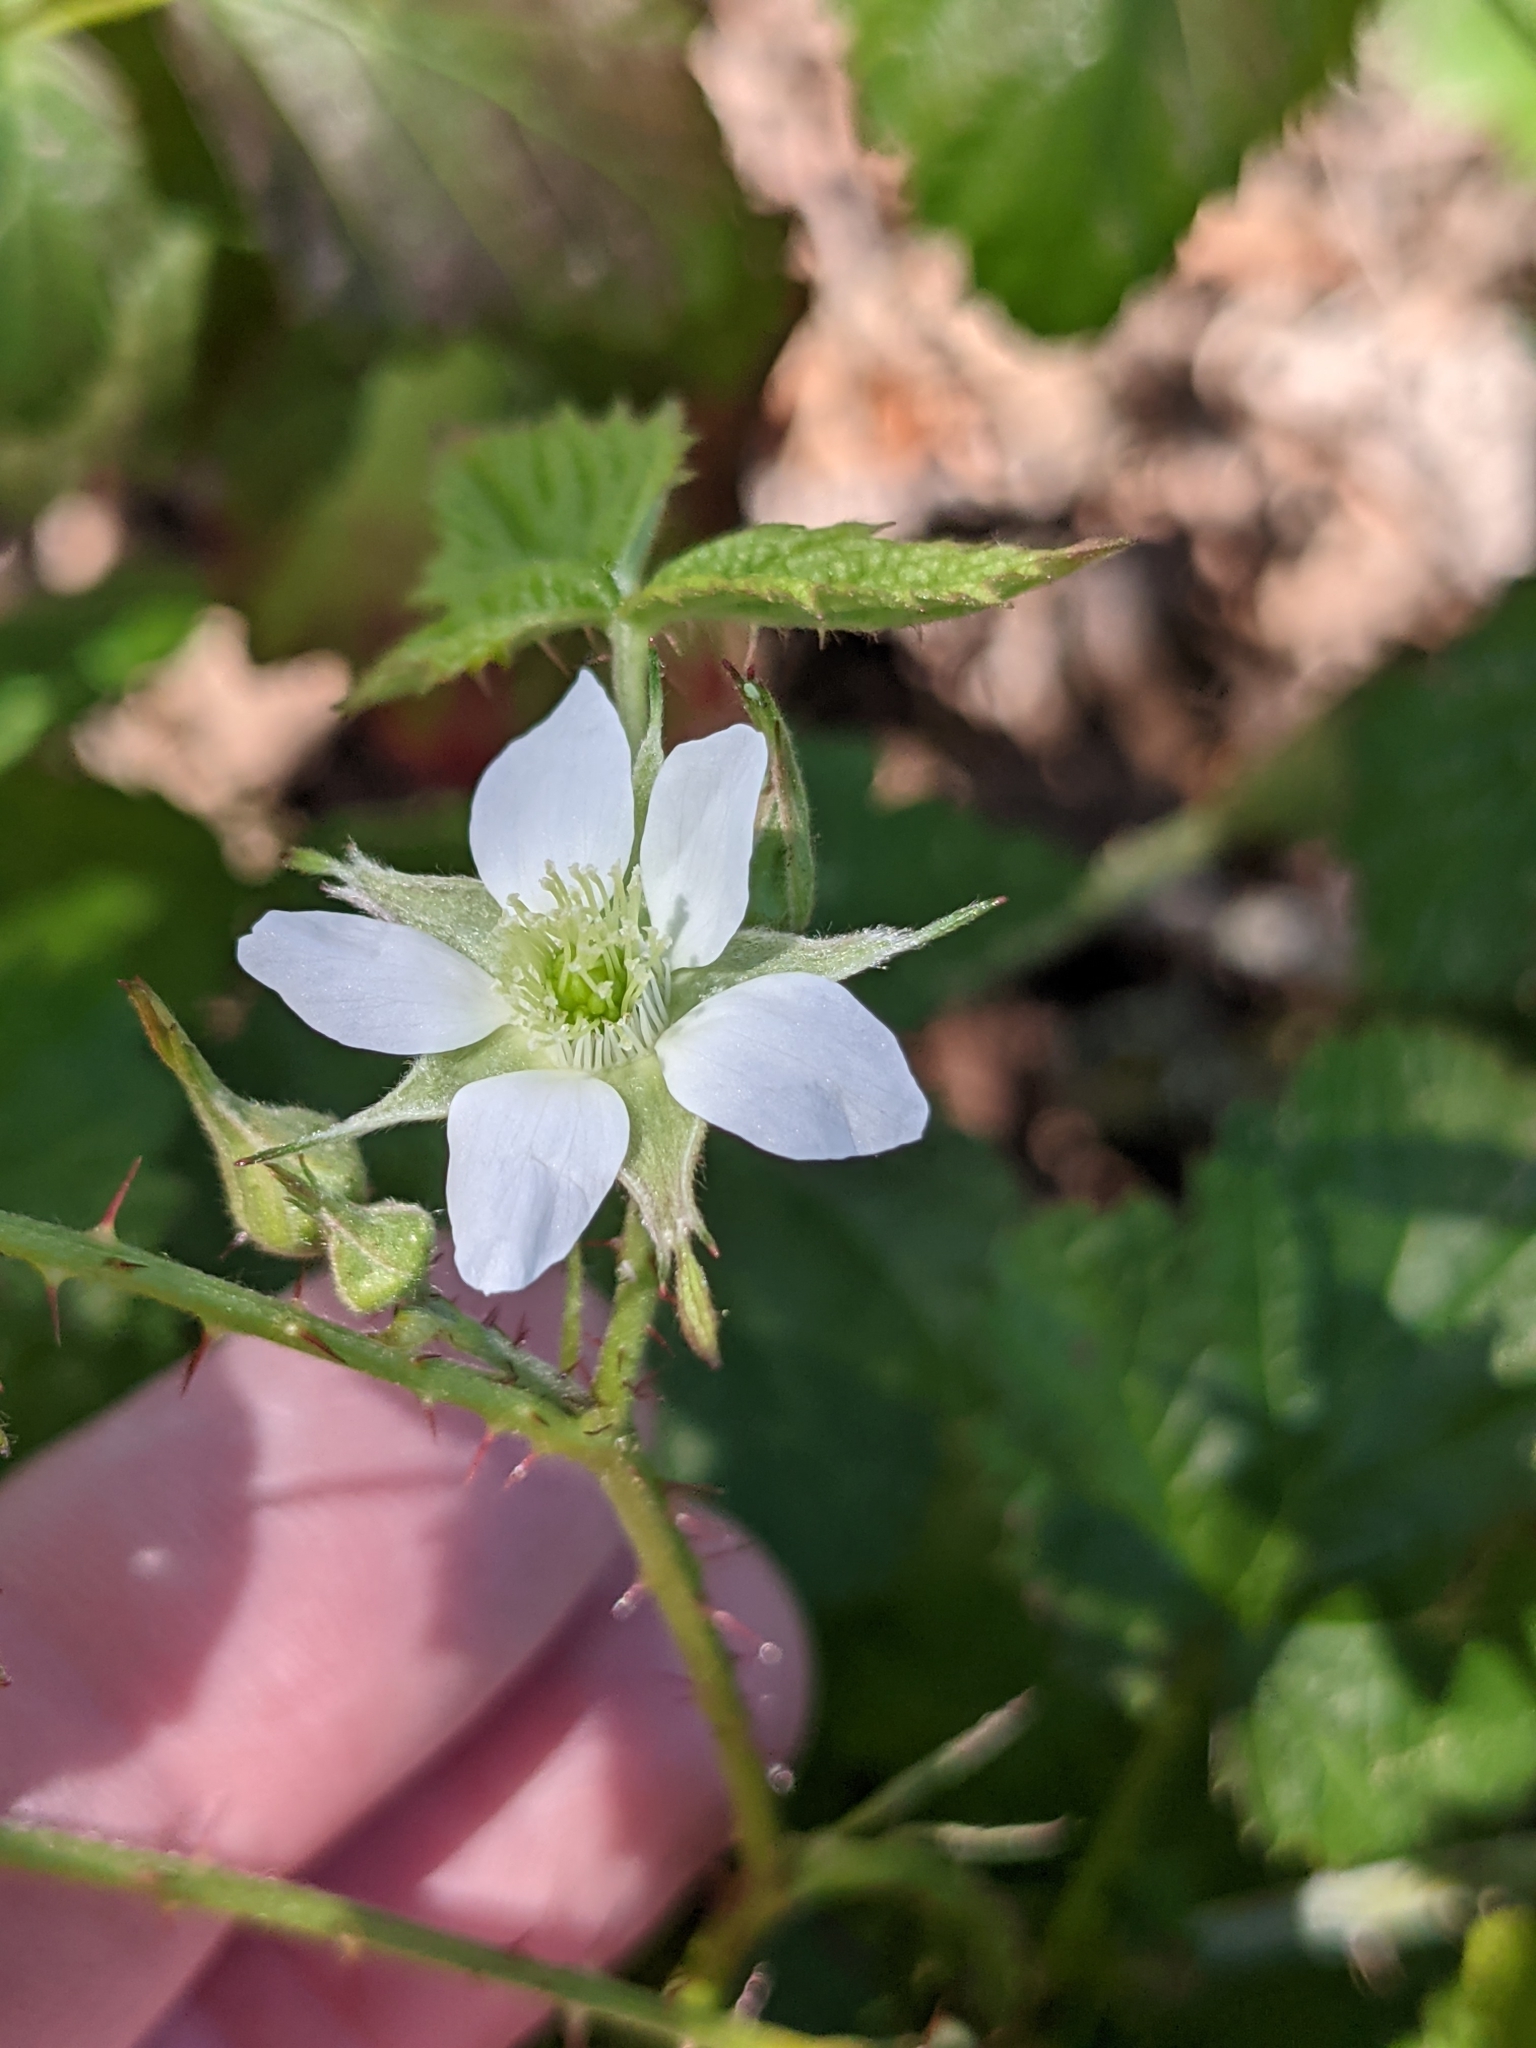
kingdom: Plantae
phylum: Tracheophyta
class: Magnoliopsida
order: Rosales
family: Rosaceae
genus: Rubus
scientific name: Rubus ursinus
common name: Pacific blackberry
